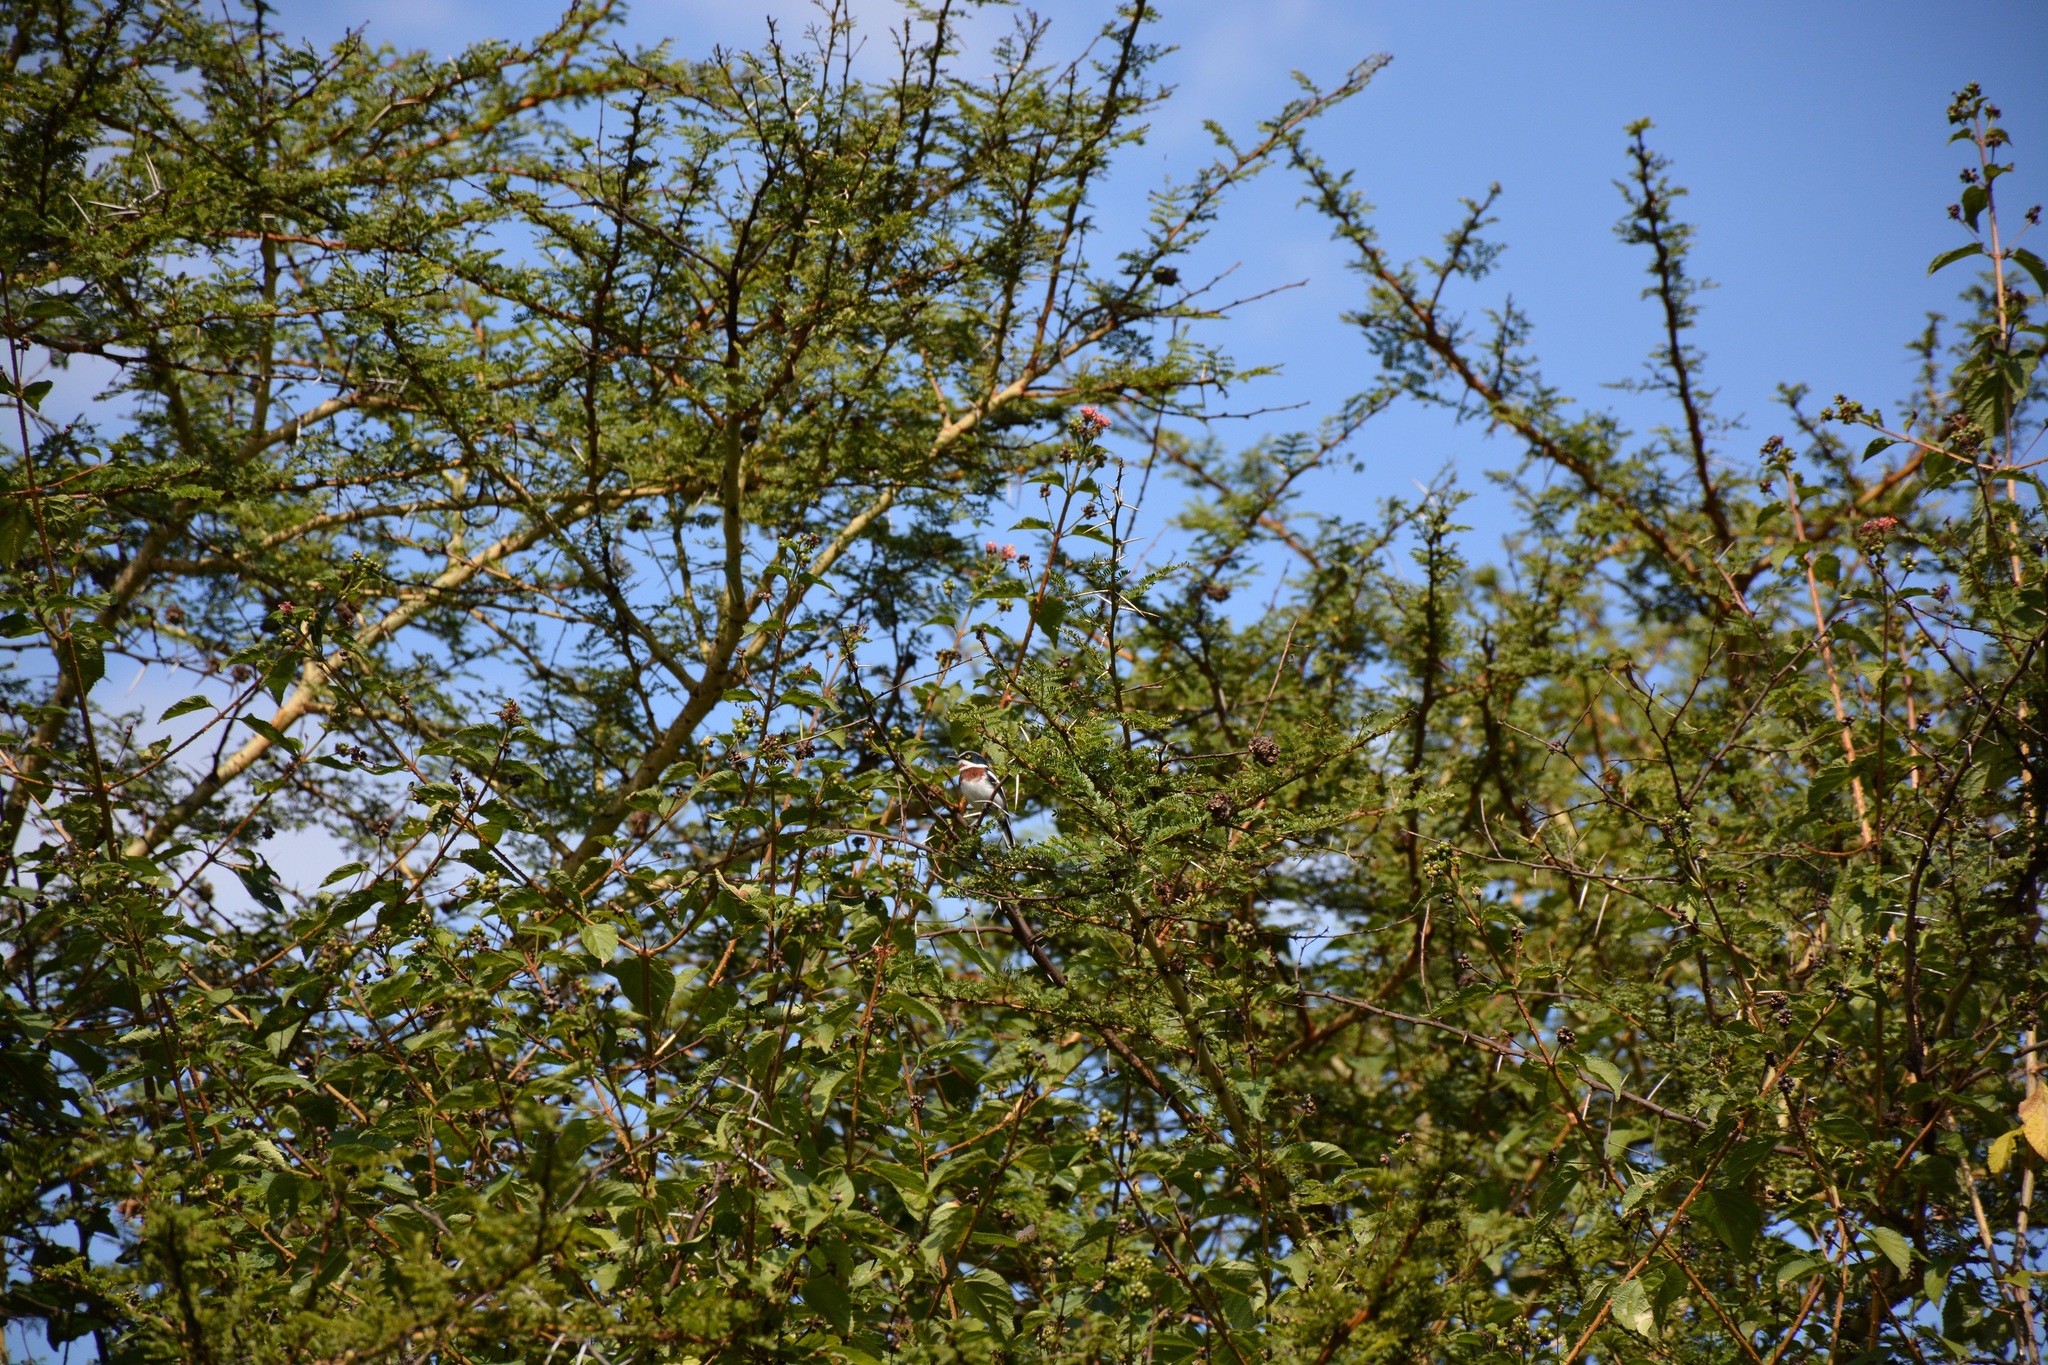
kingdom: Animalia
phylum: Chordata
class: Aves
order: Passeriformes
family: Platysteiridae
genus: Batis
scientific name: Batis molitor
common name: Chinspot batis
